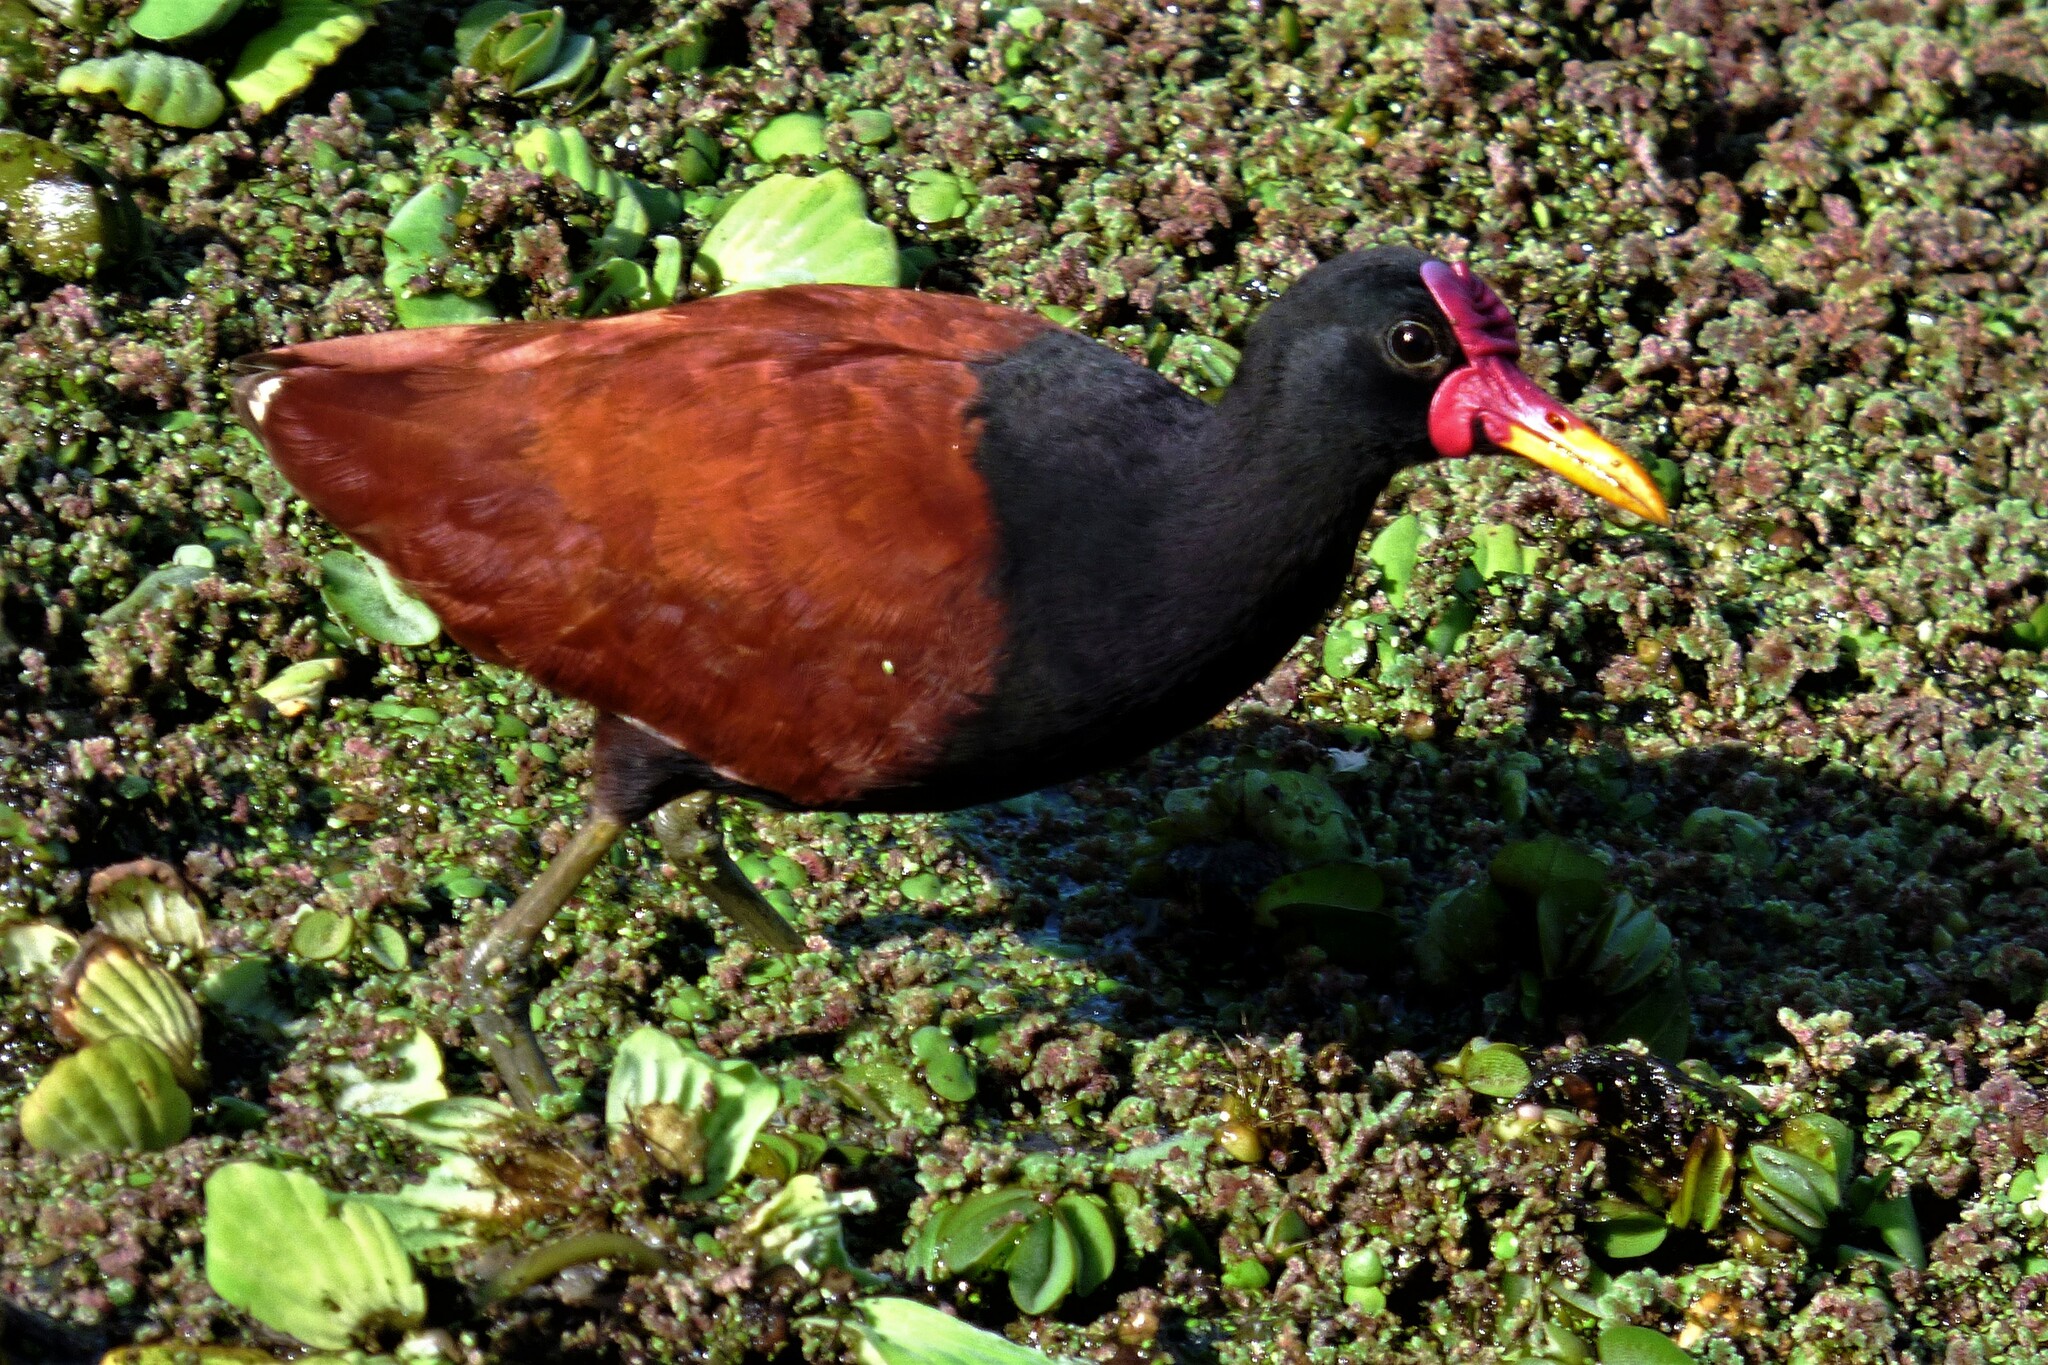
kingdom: Animalia
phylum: Chordata
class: Aves
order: Charadriiformes
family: Jacanidae
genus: Jacana
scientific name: Jacana jacana
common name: Wattled jacana
